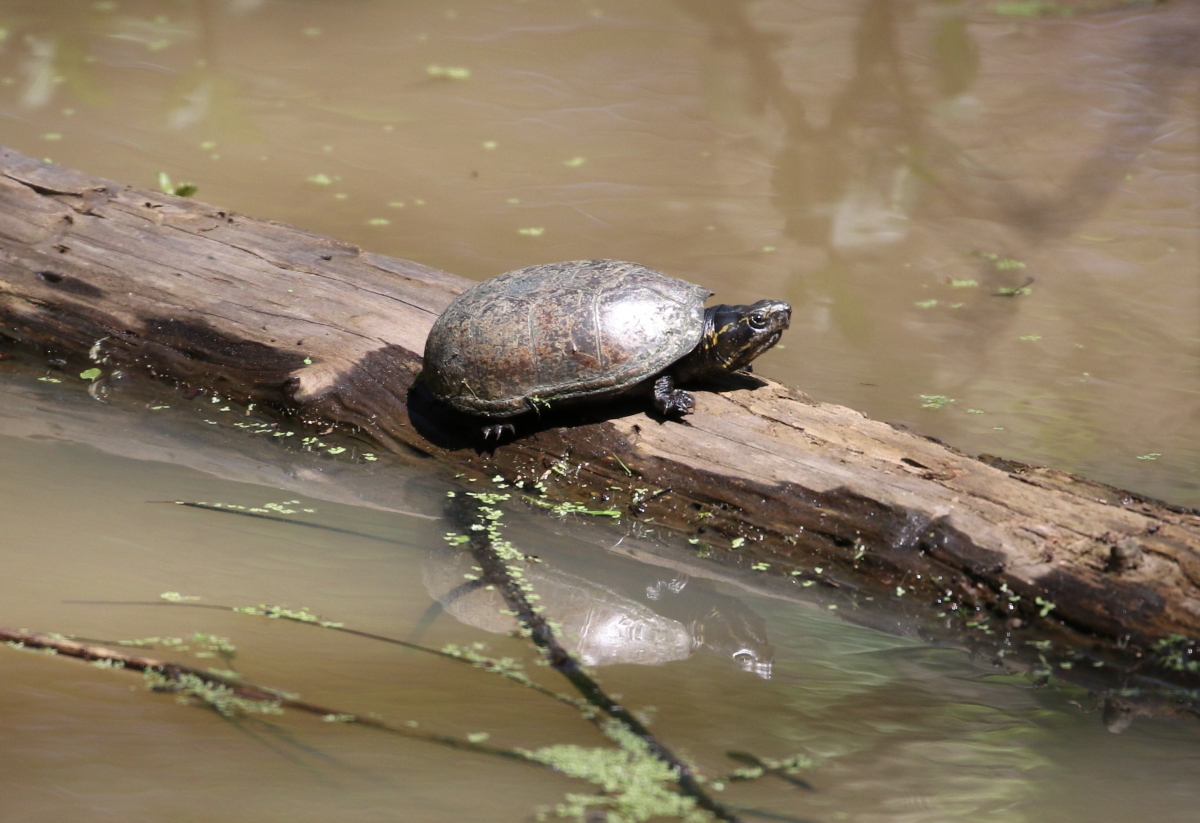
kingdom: Animalia
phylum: Chordata
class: Testudines
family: Kinosternidae
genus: Kinosternon
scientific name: Kinosternon subrubrum
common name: Eastern mud turtle
